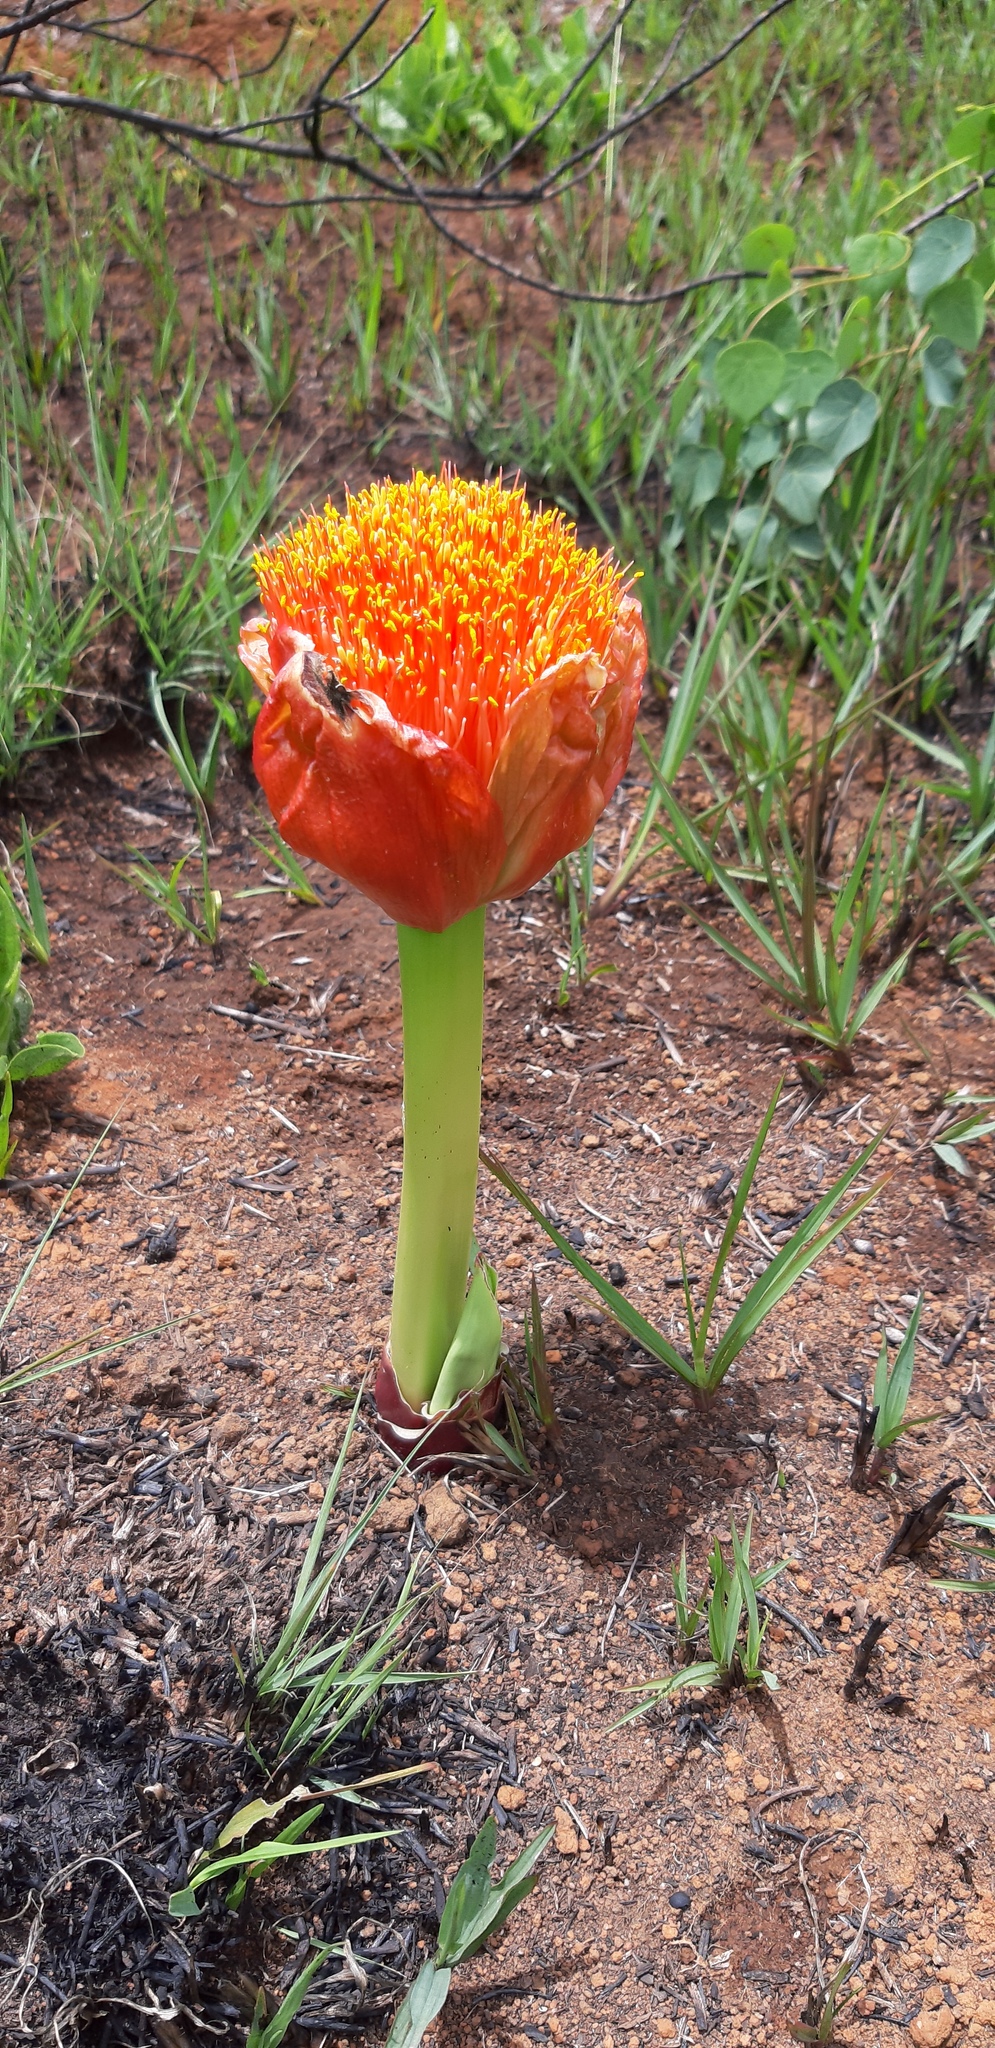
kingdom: Plantae
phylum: Tracheophyta
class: Liliopsida
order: Asparagales
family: Amaryllidaceae
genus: Scadoxus
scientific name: Scadoxus puniceus
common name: Royal-paintbrush
